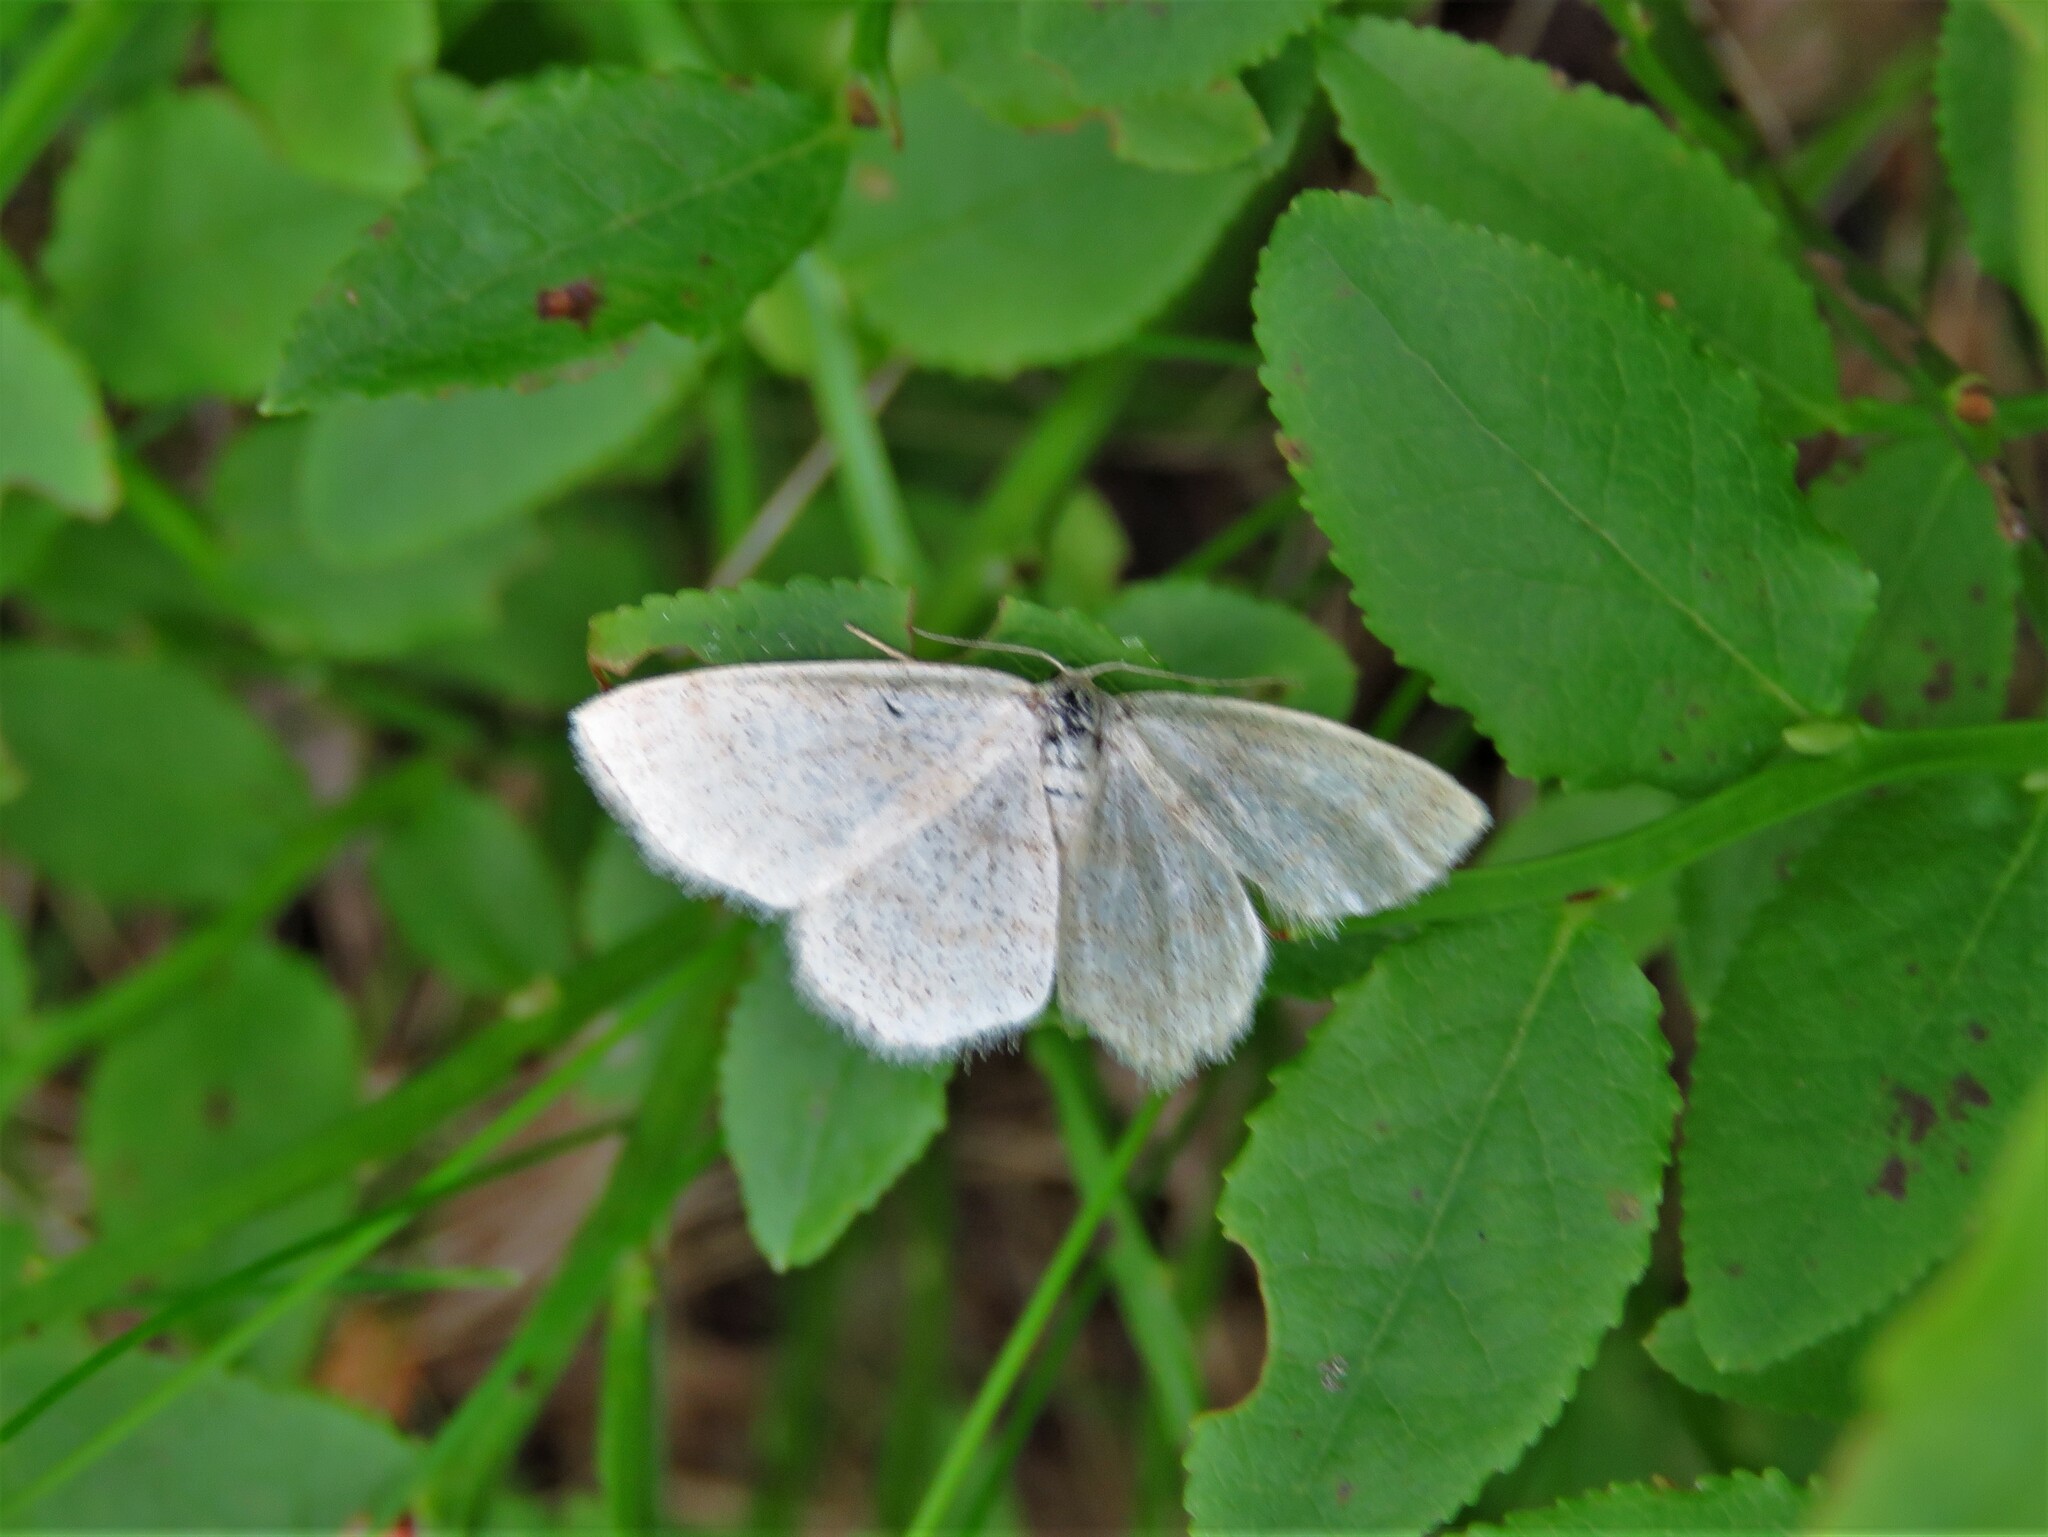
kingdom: Animalia
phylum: Arthropoda
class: Insecta
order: Lepidoptera
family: Geometridae
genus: Scopula
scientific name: Scopula ternata
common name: Smoky wave
